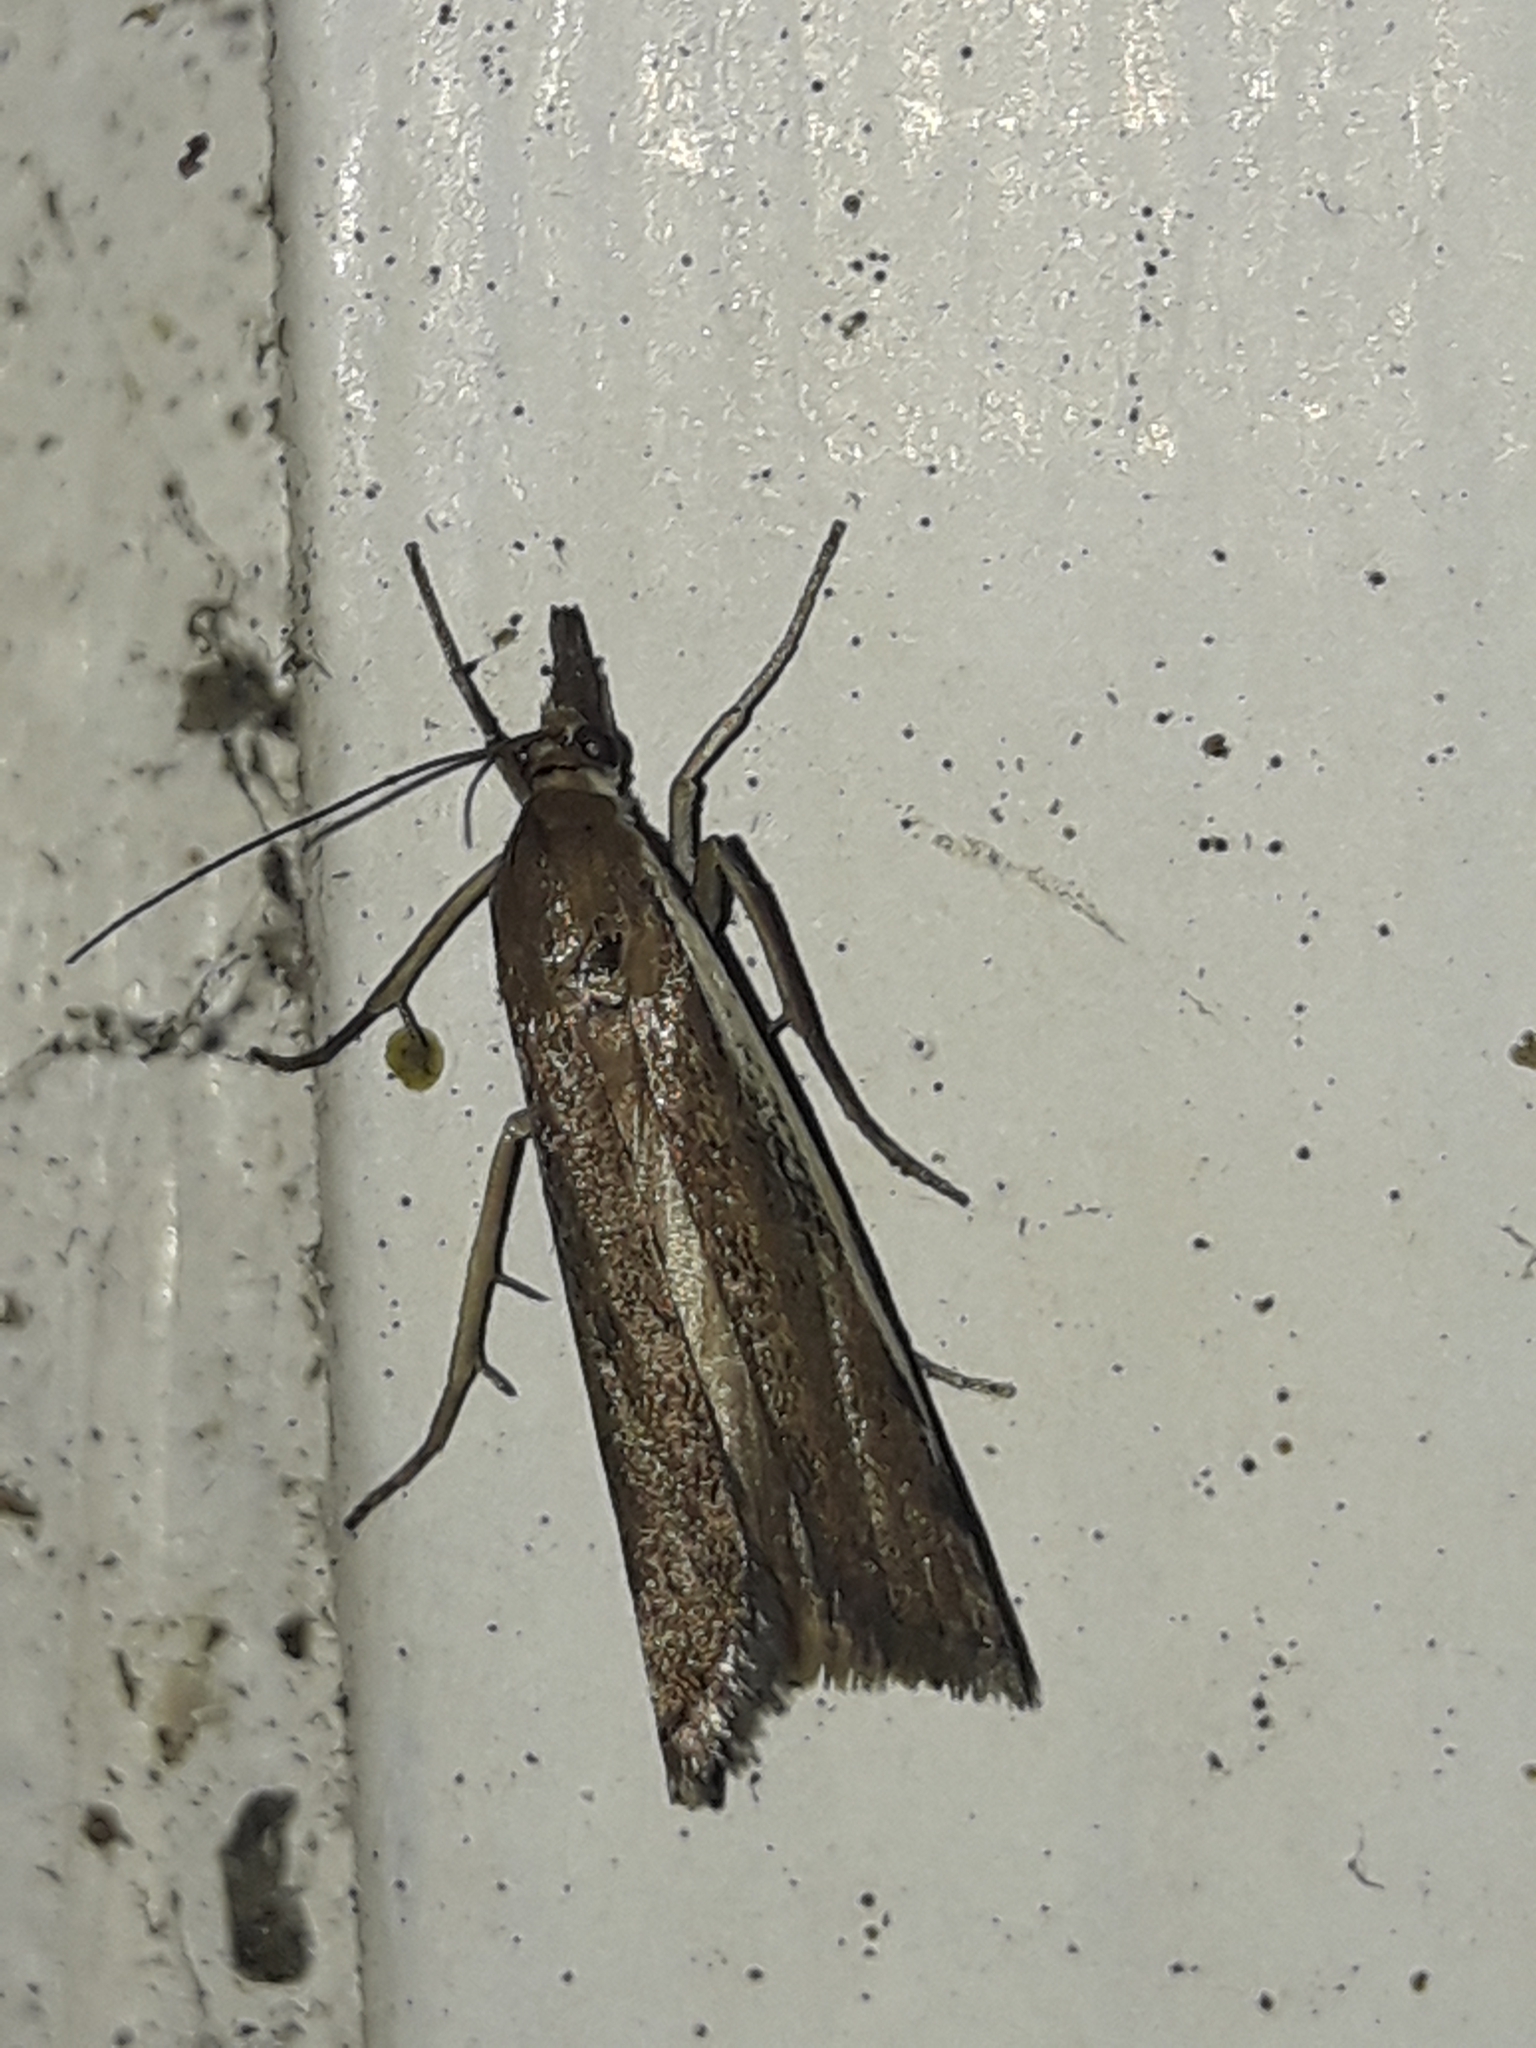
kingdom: Animalia
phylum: Arthropoda
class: Insecta
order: Lepidoptera
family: Crambidae
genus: Orocrambus
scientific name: Orocrambus flexuosellus
